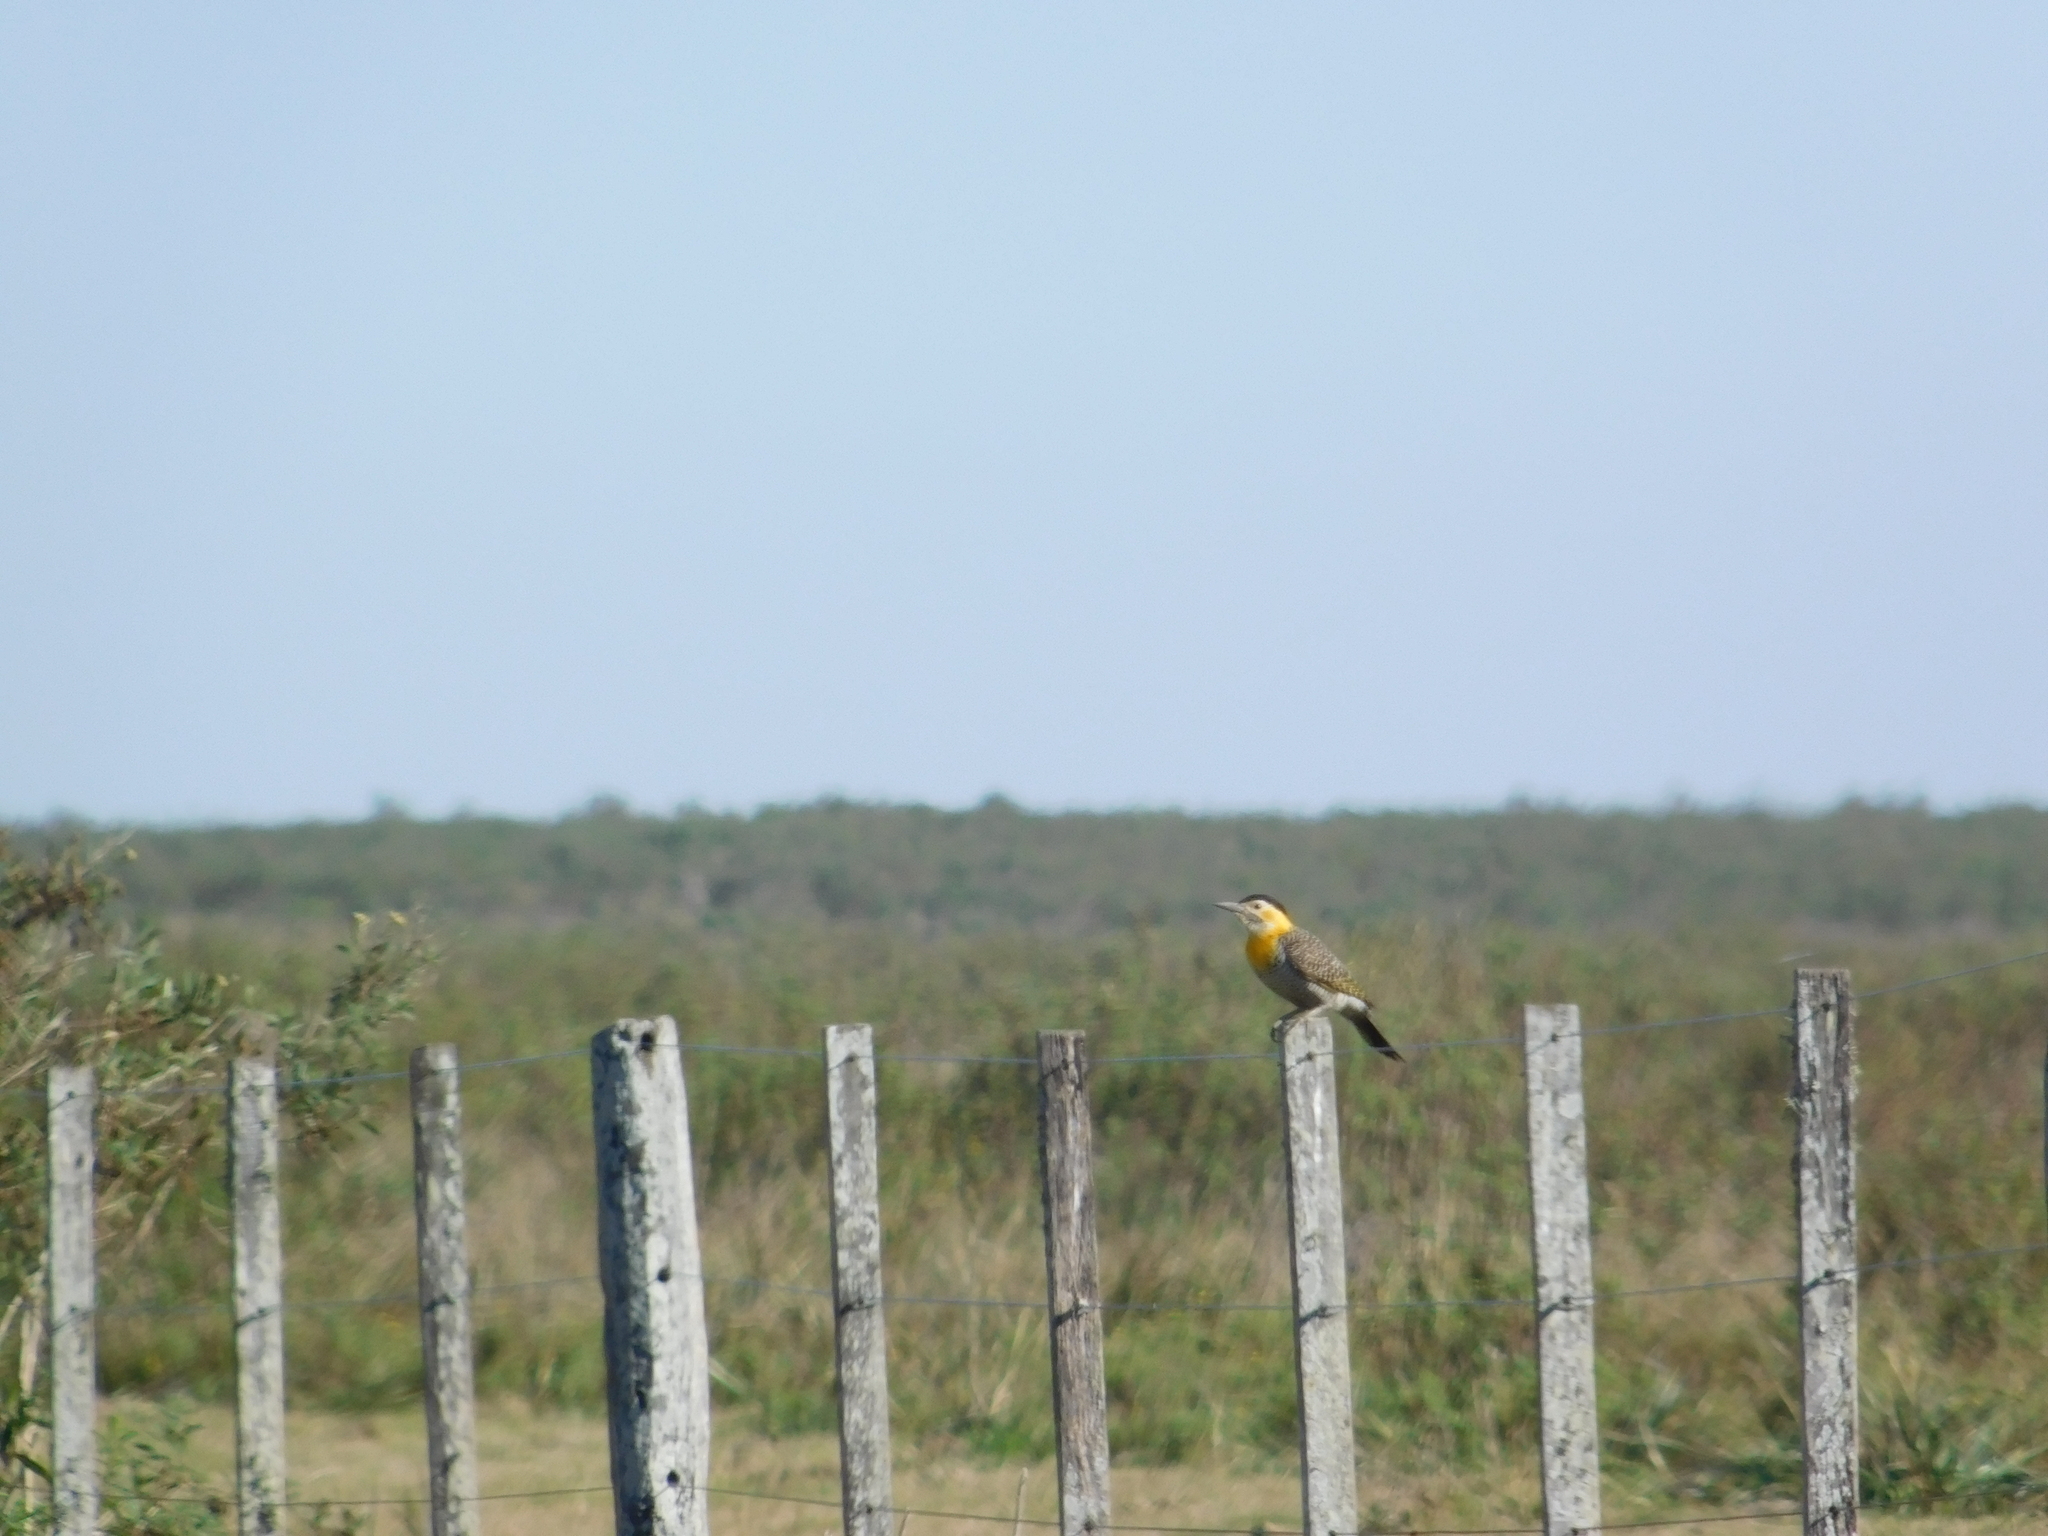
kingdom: Animalia
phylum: Chordata
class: Aves
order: Piciformes
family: Picidae
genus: Colaptes
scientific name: Colaptes campestris
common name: Campo flicker
